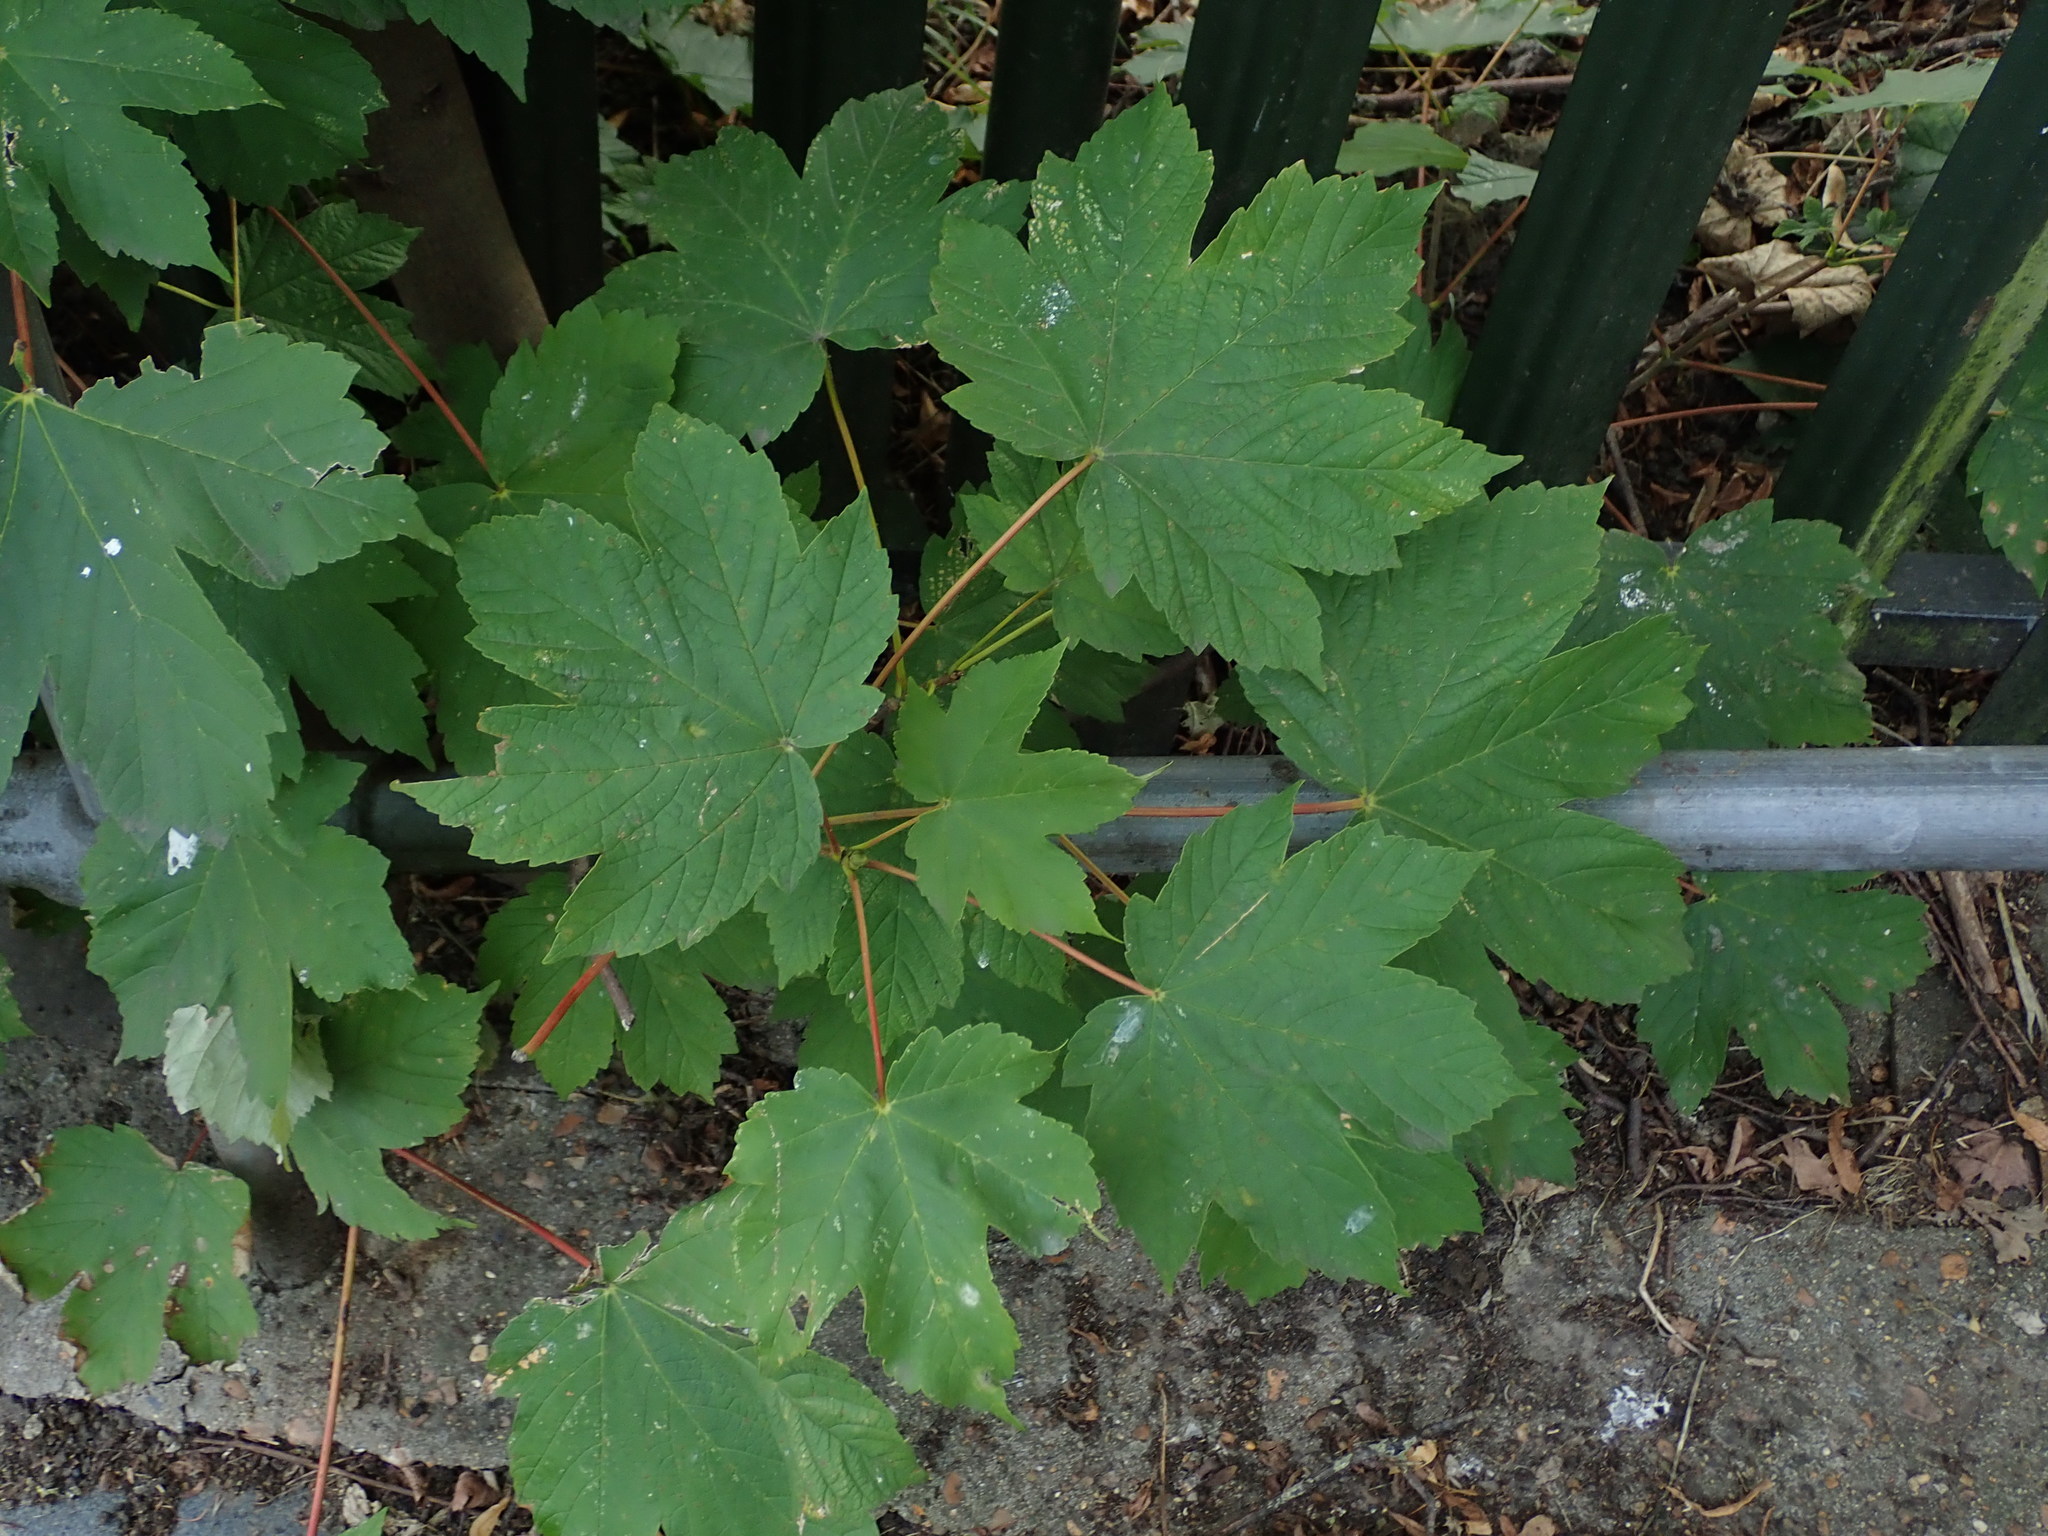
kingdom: Plantae
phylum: Tracheophyta
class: Magnoliopsida
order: Sapindales
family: Sapindaceae
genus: Acer
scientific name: Acer pseudoplatanus
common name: Sycamore
